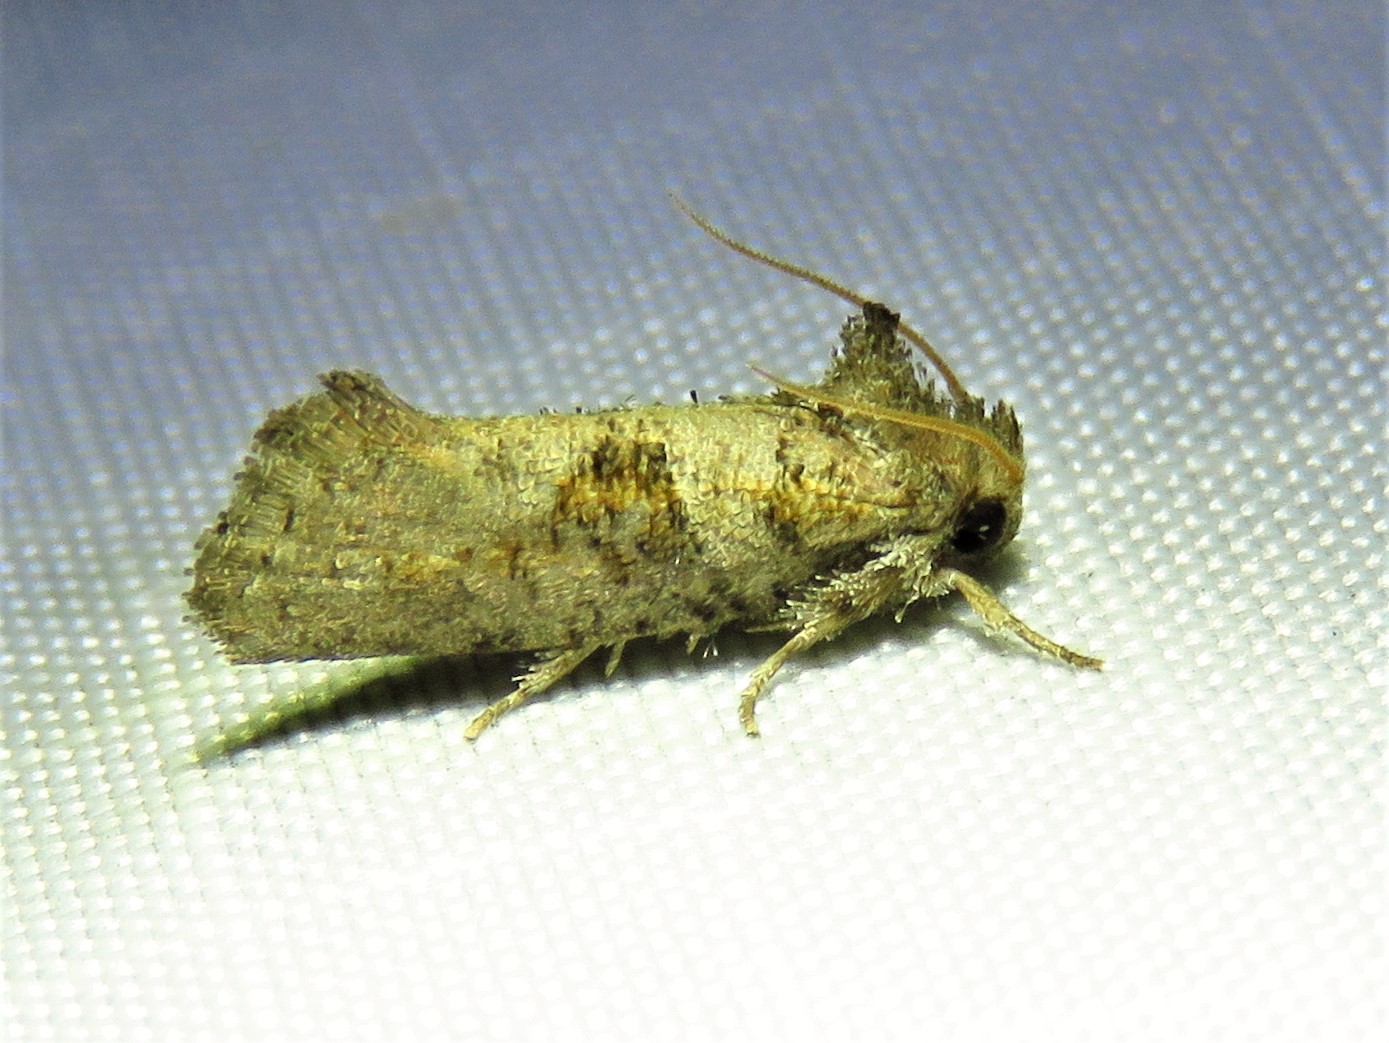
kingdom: Animalia
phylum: Arthropoda
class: Insecta
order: Lepidoptera
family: Tineidae
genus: Acrolophus
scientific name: Acrolophus piger
